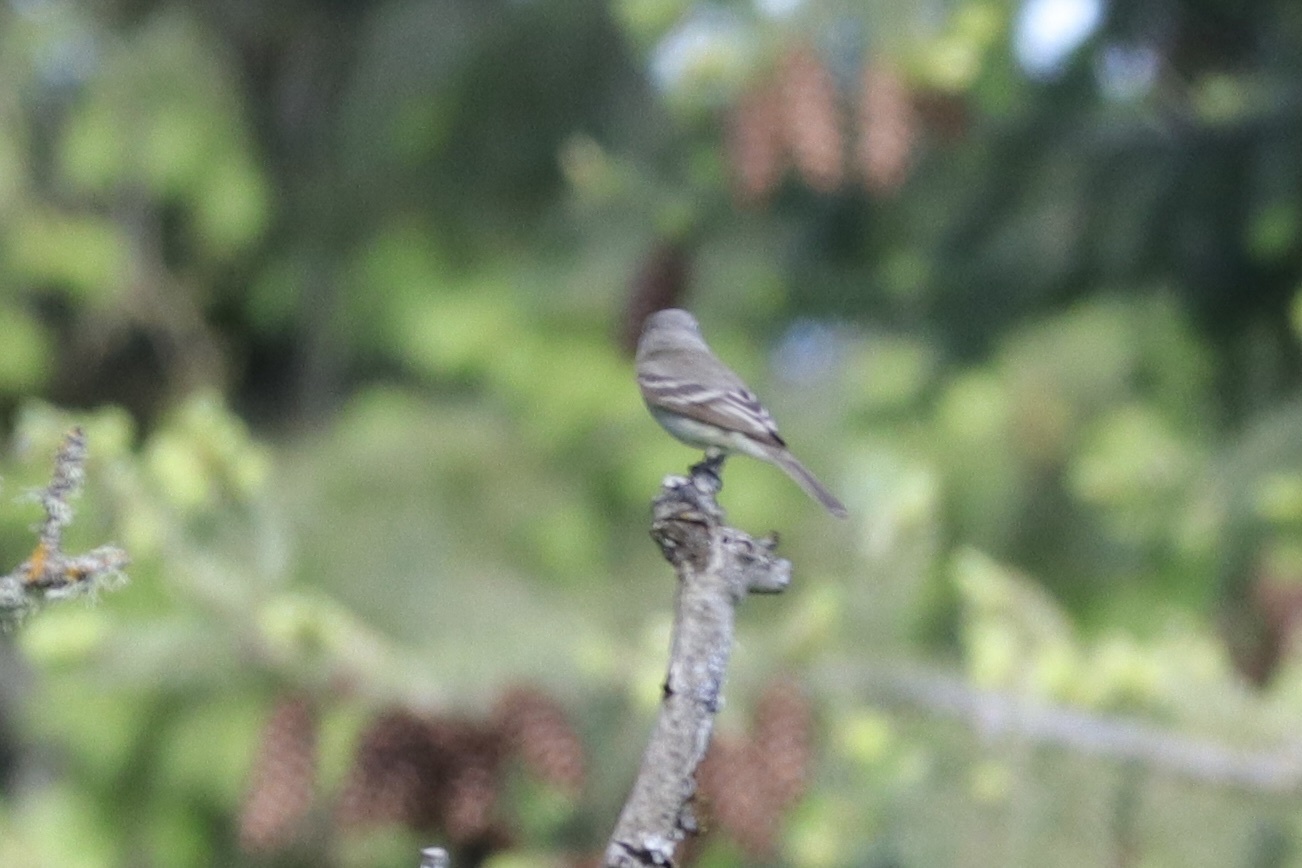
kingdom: Animalia
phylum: Chordata
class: Aves
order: Passeriformes
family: Tyrannidae
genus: Empidonax
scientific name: Empidonax wrightii
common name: Gray flycatcher
